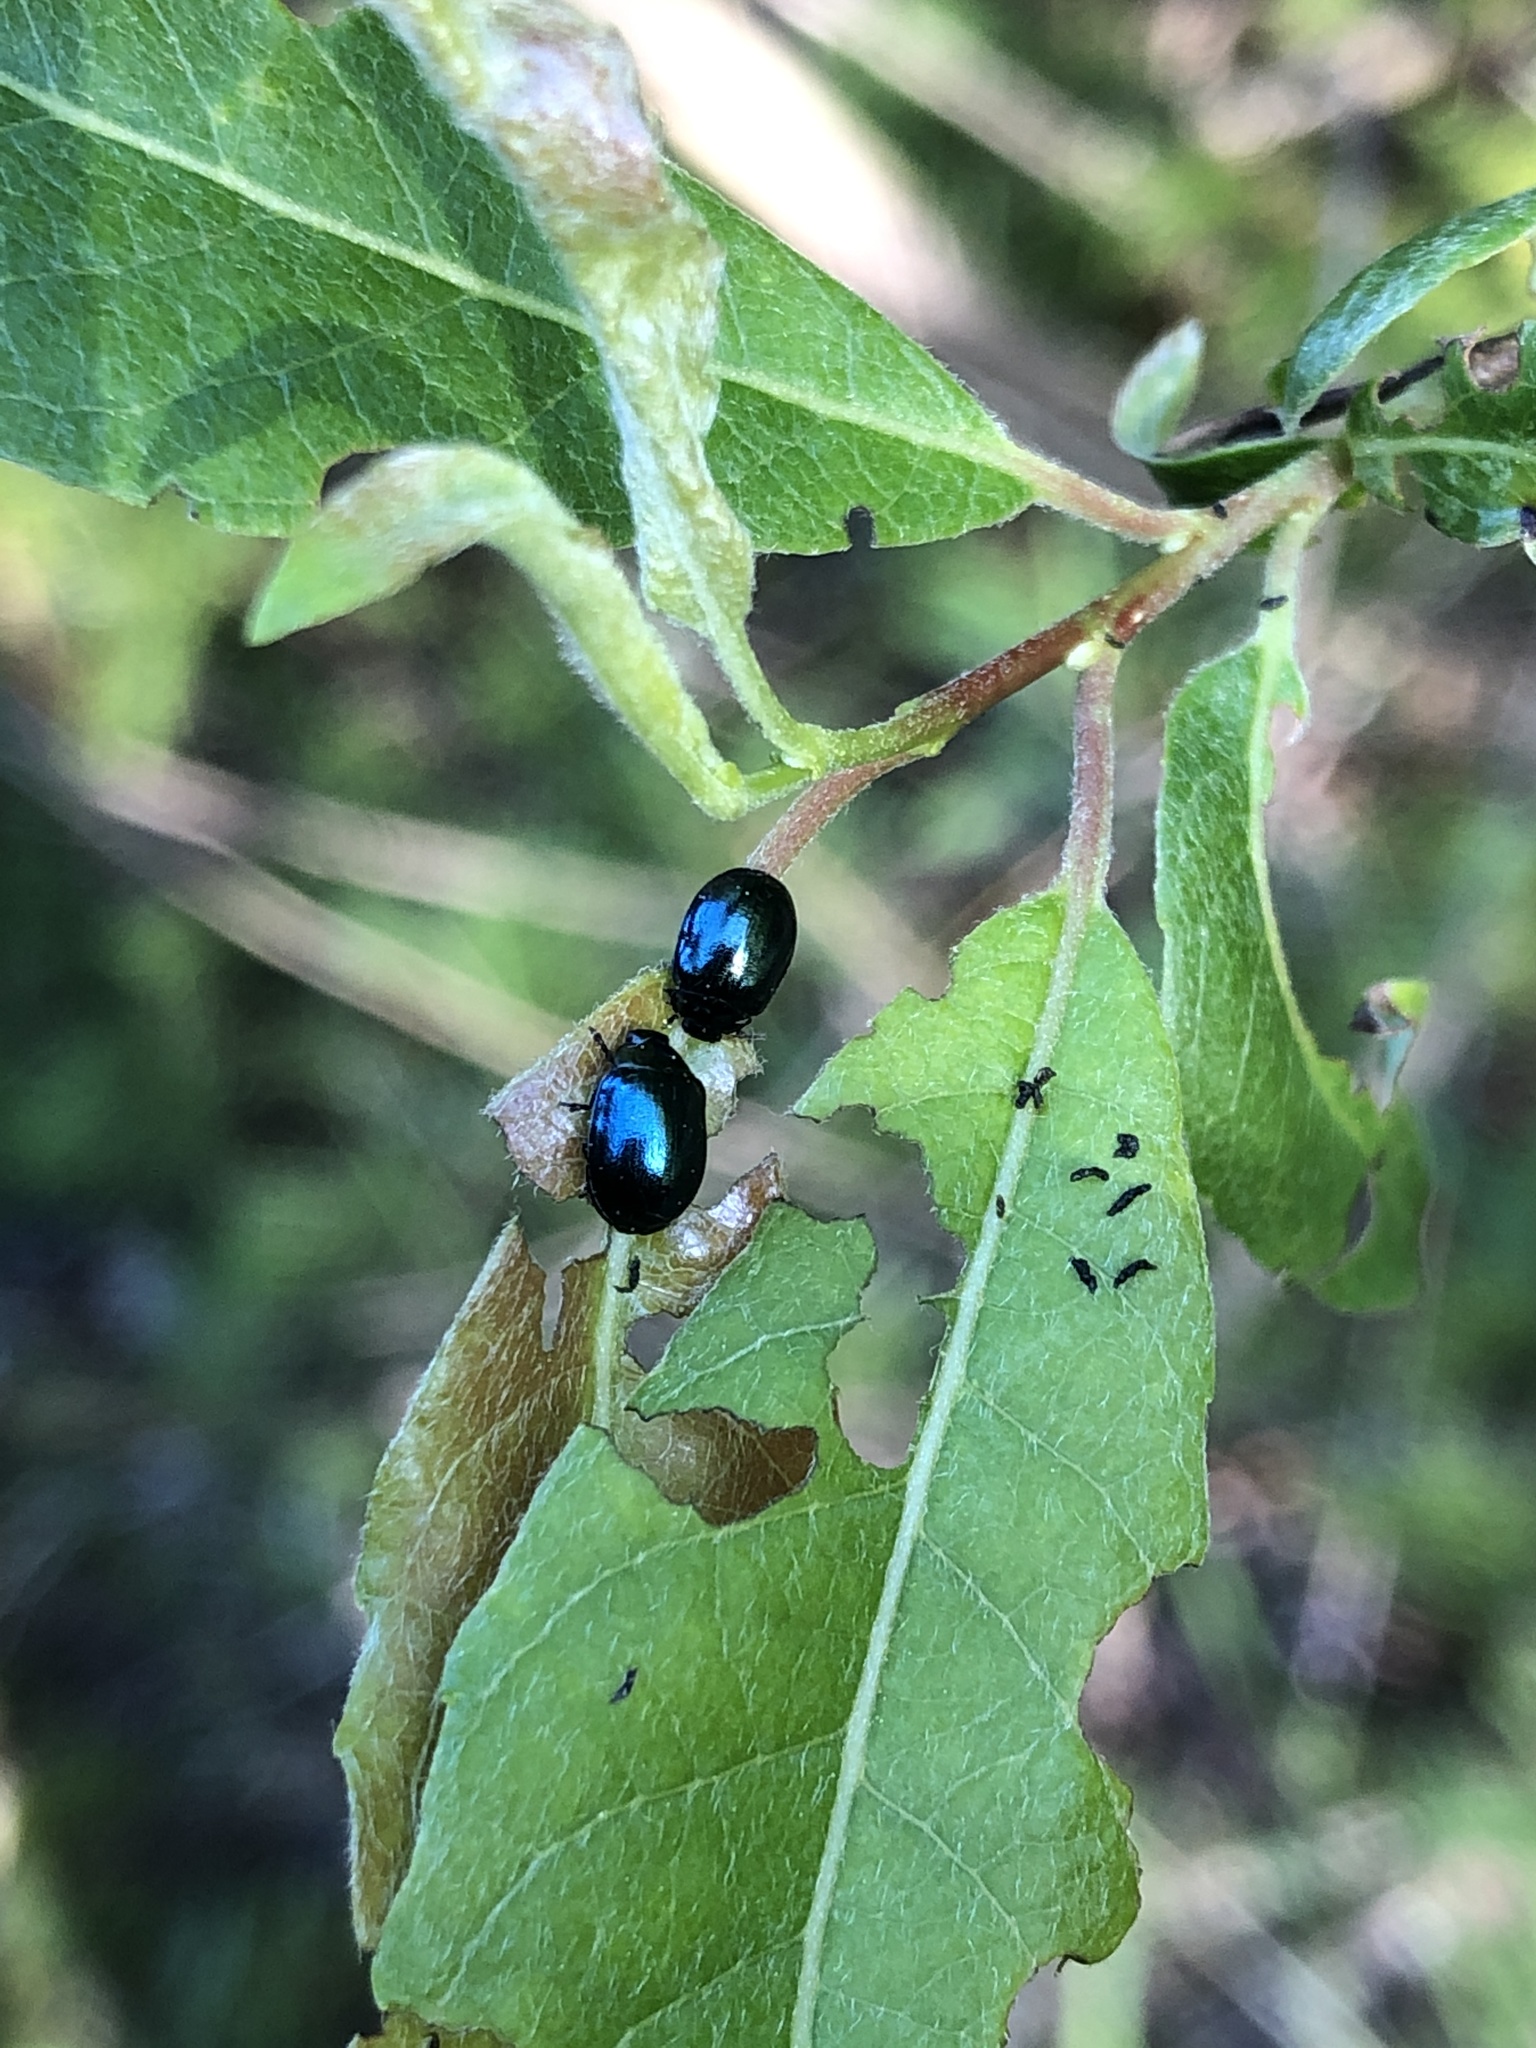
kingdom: Animalia
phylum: Arthropoda
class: Insecta
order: Coleoptera
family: Chrysomelidae
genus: Plagiodera
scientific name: Plagiodera versicolora
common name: Imported willow leaf beetle
